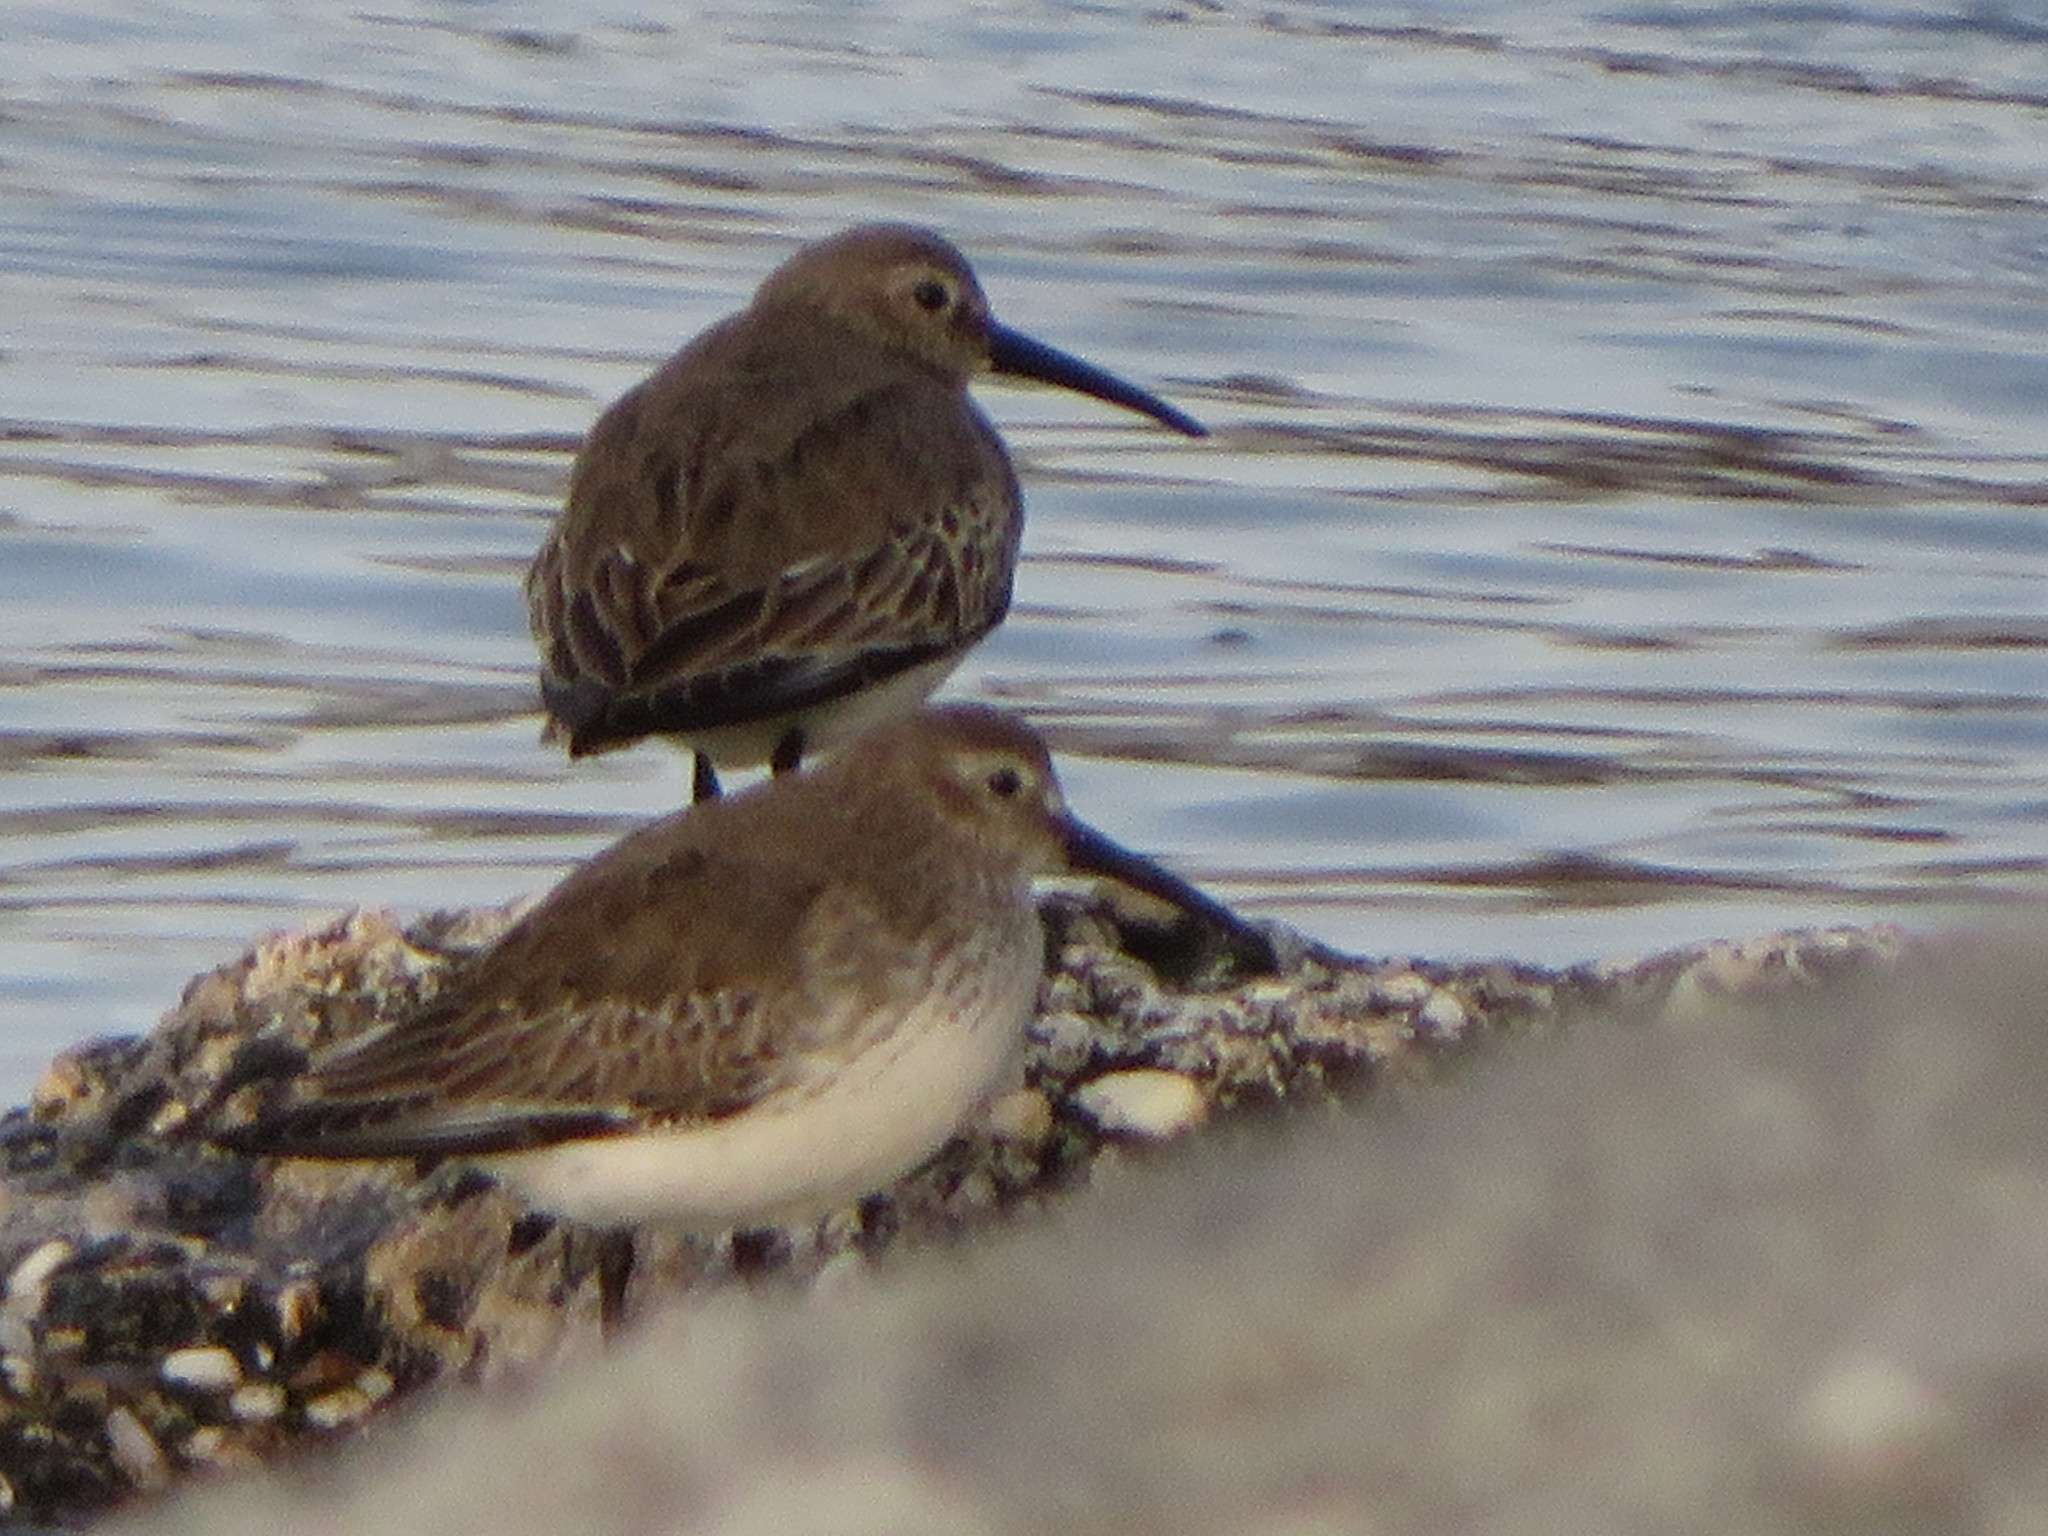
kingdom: Animalia
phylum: Chordata
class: Aves
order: Charadriiformes
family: Scolopacidae
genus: Calidris
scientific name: Calidris alpina
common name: Dunlin
